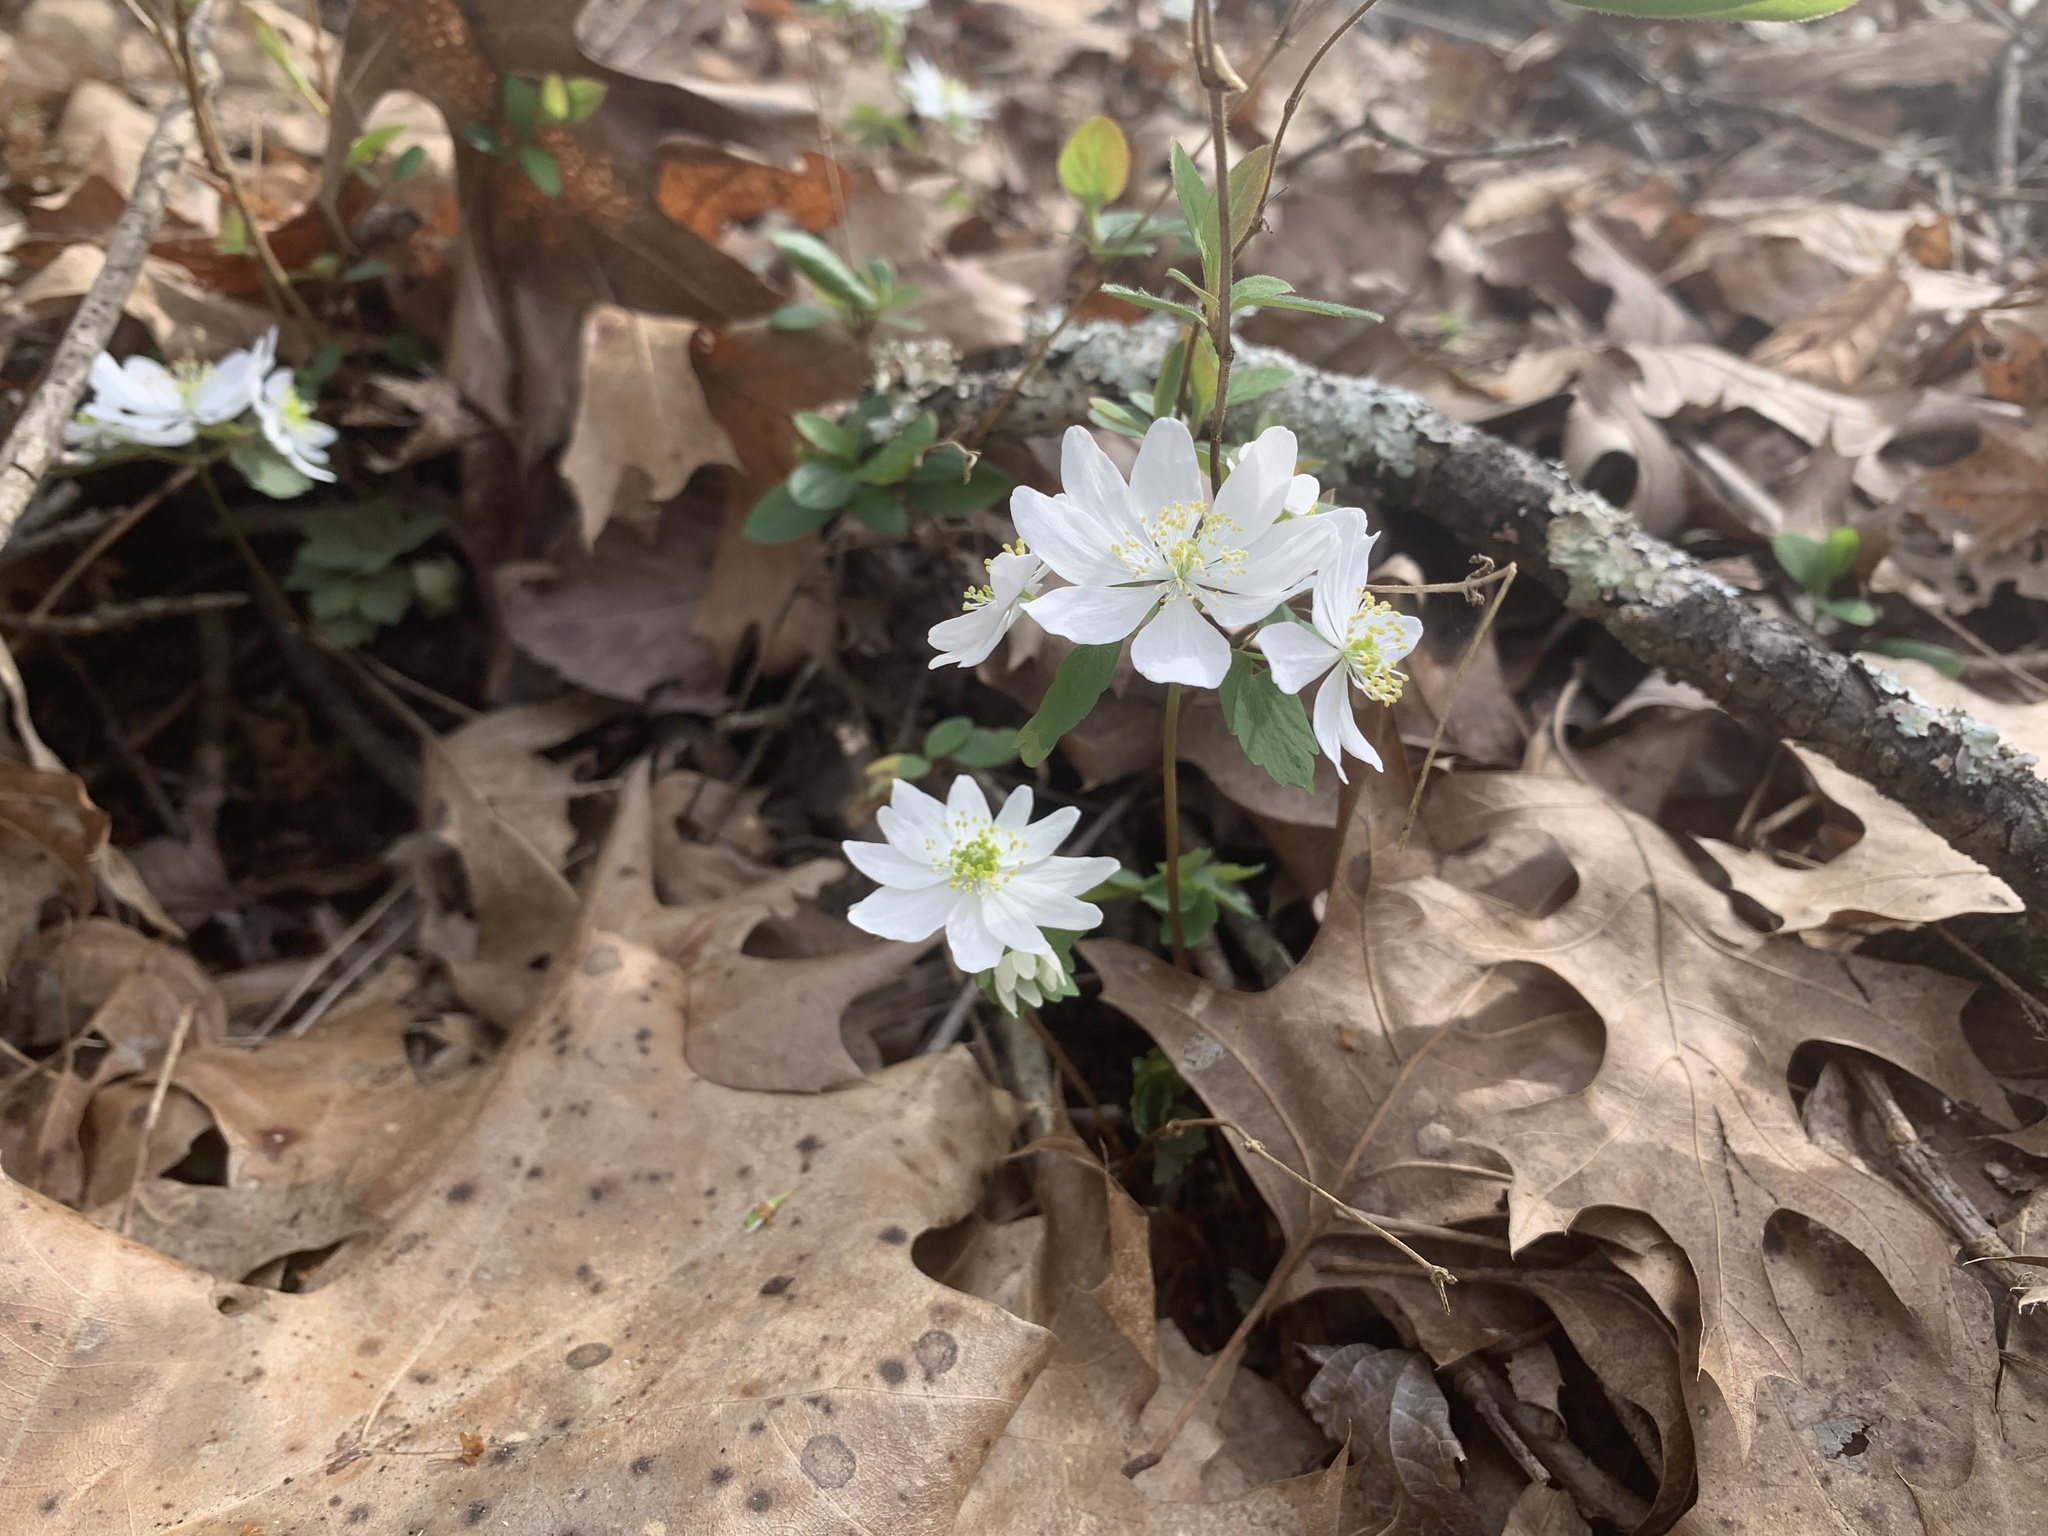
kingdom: Plantae
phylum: Tracheophyta
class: Magnoliopsida
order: Ranunculales
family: Ranunculaceae
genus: Thalictrum
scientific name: Thalictrum thalictroides
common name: Rue-anemone
